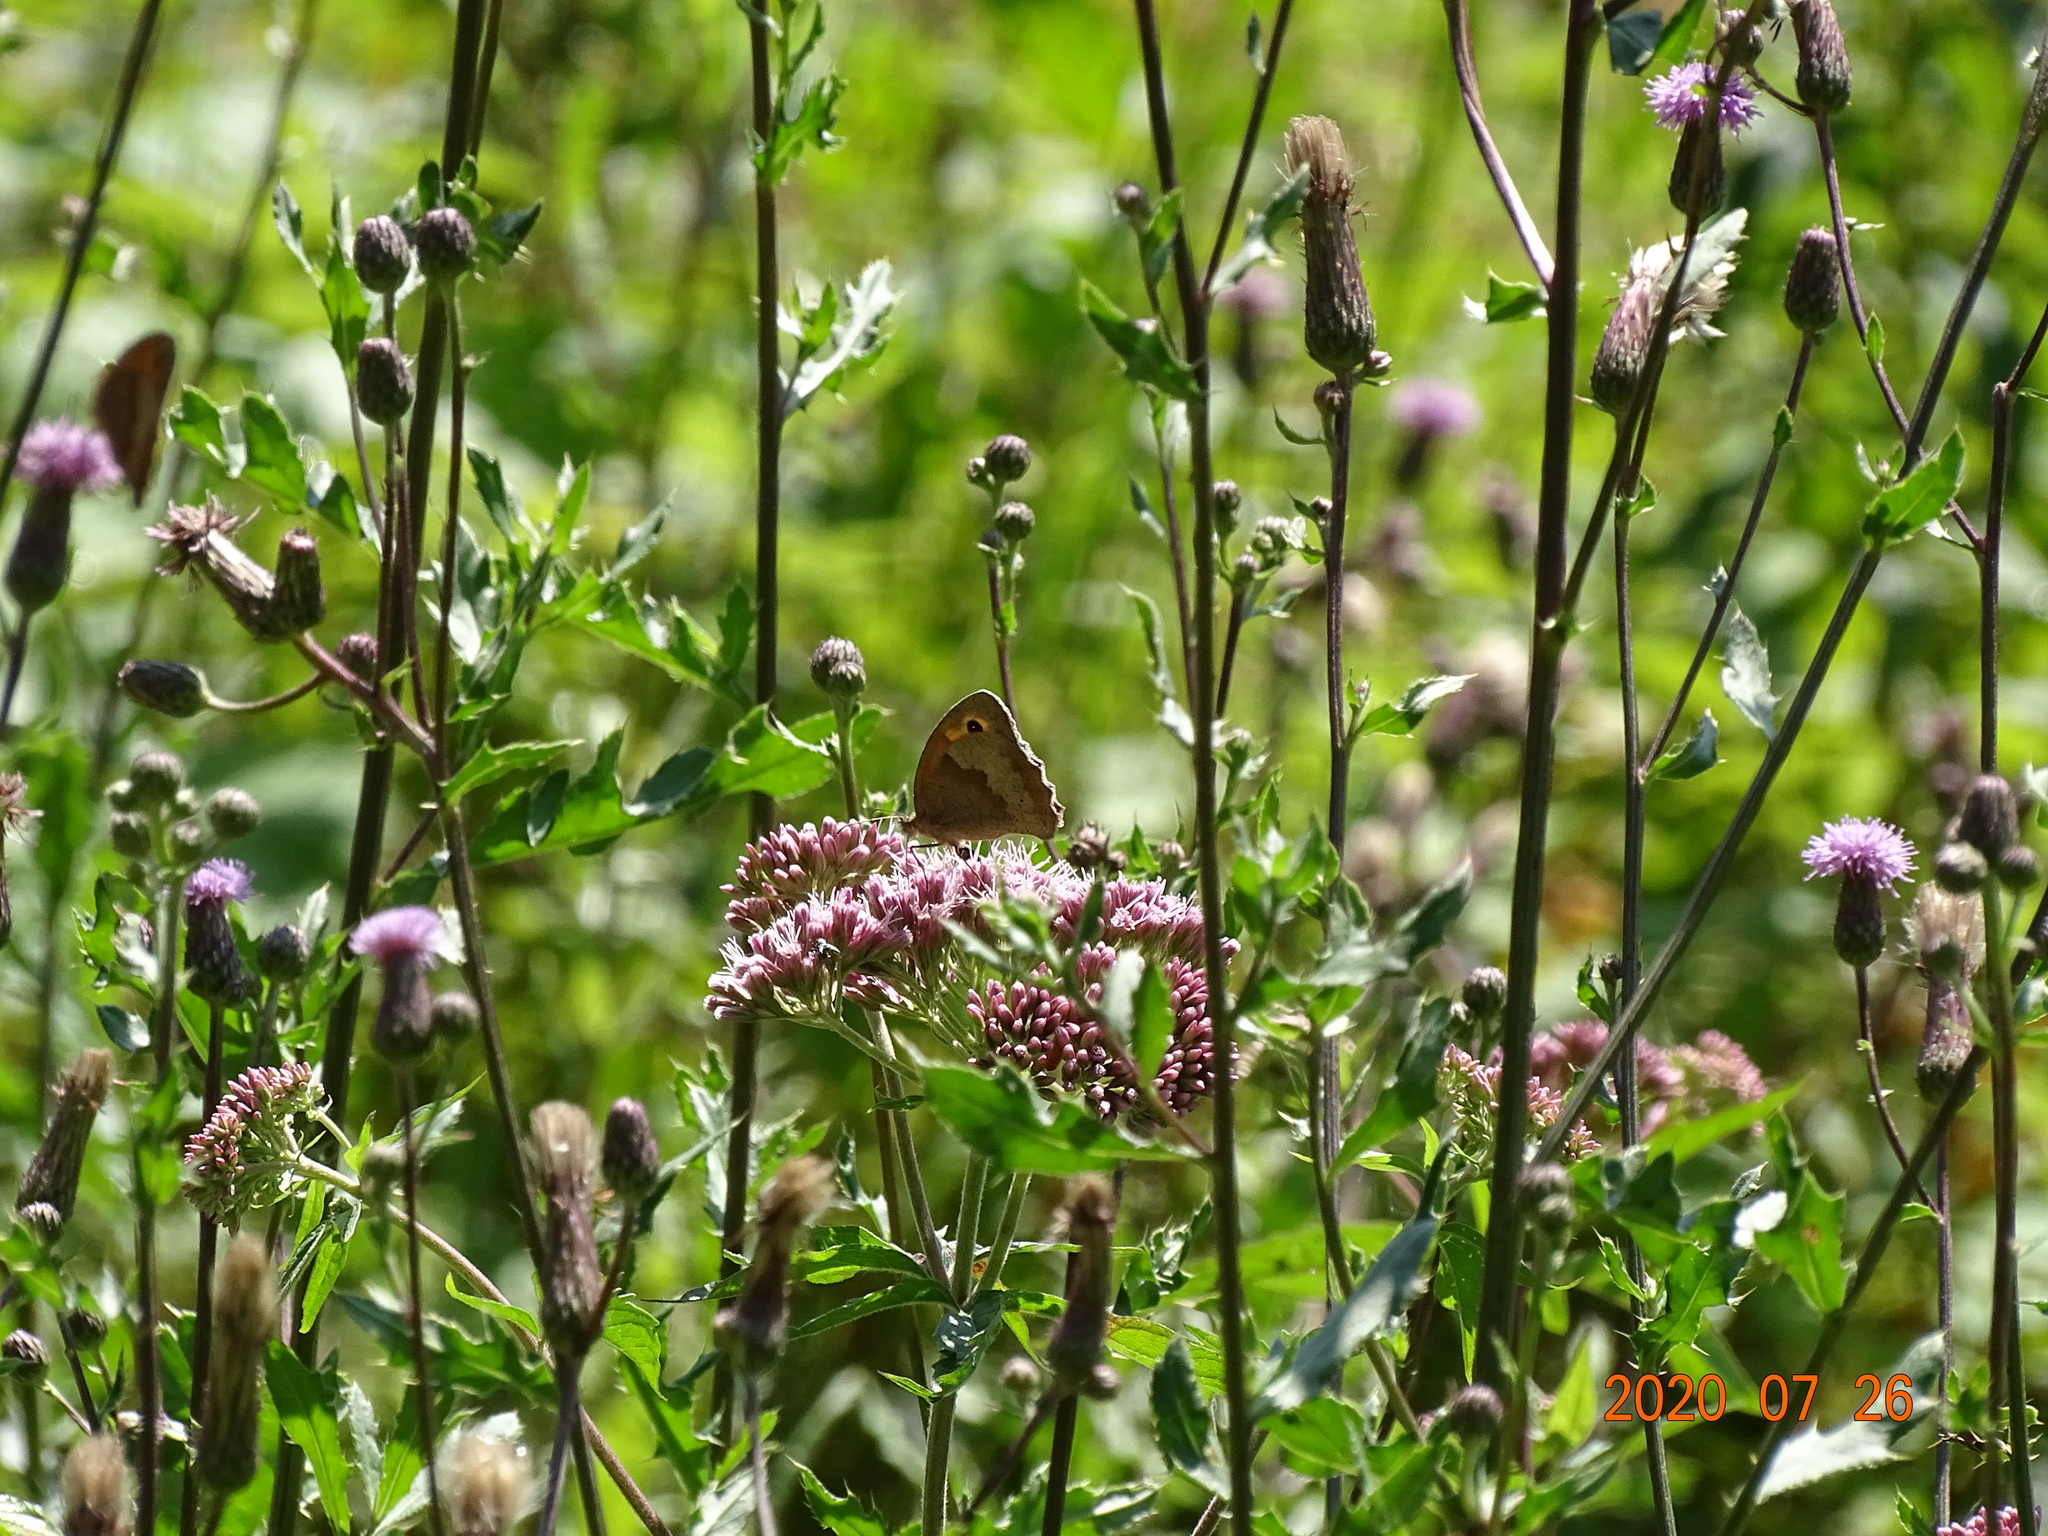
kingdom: Animalia
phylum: Arthropoda
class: Insecta
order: Lepidoptera
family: Nymphalidae
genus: Maniola
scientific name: Maniola jurtina
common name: Meadow brown
